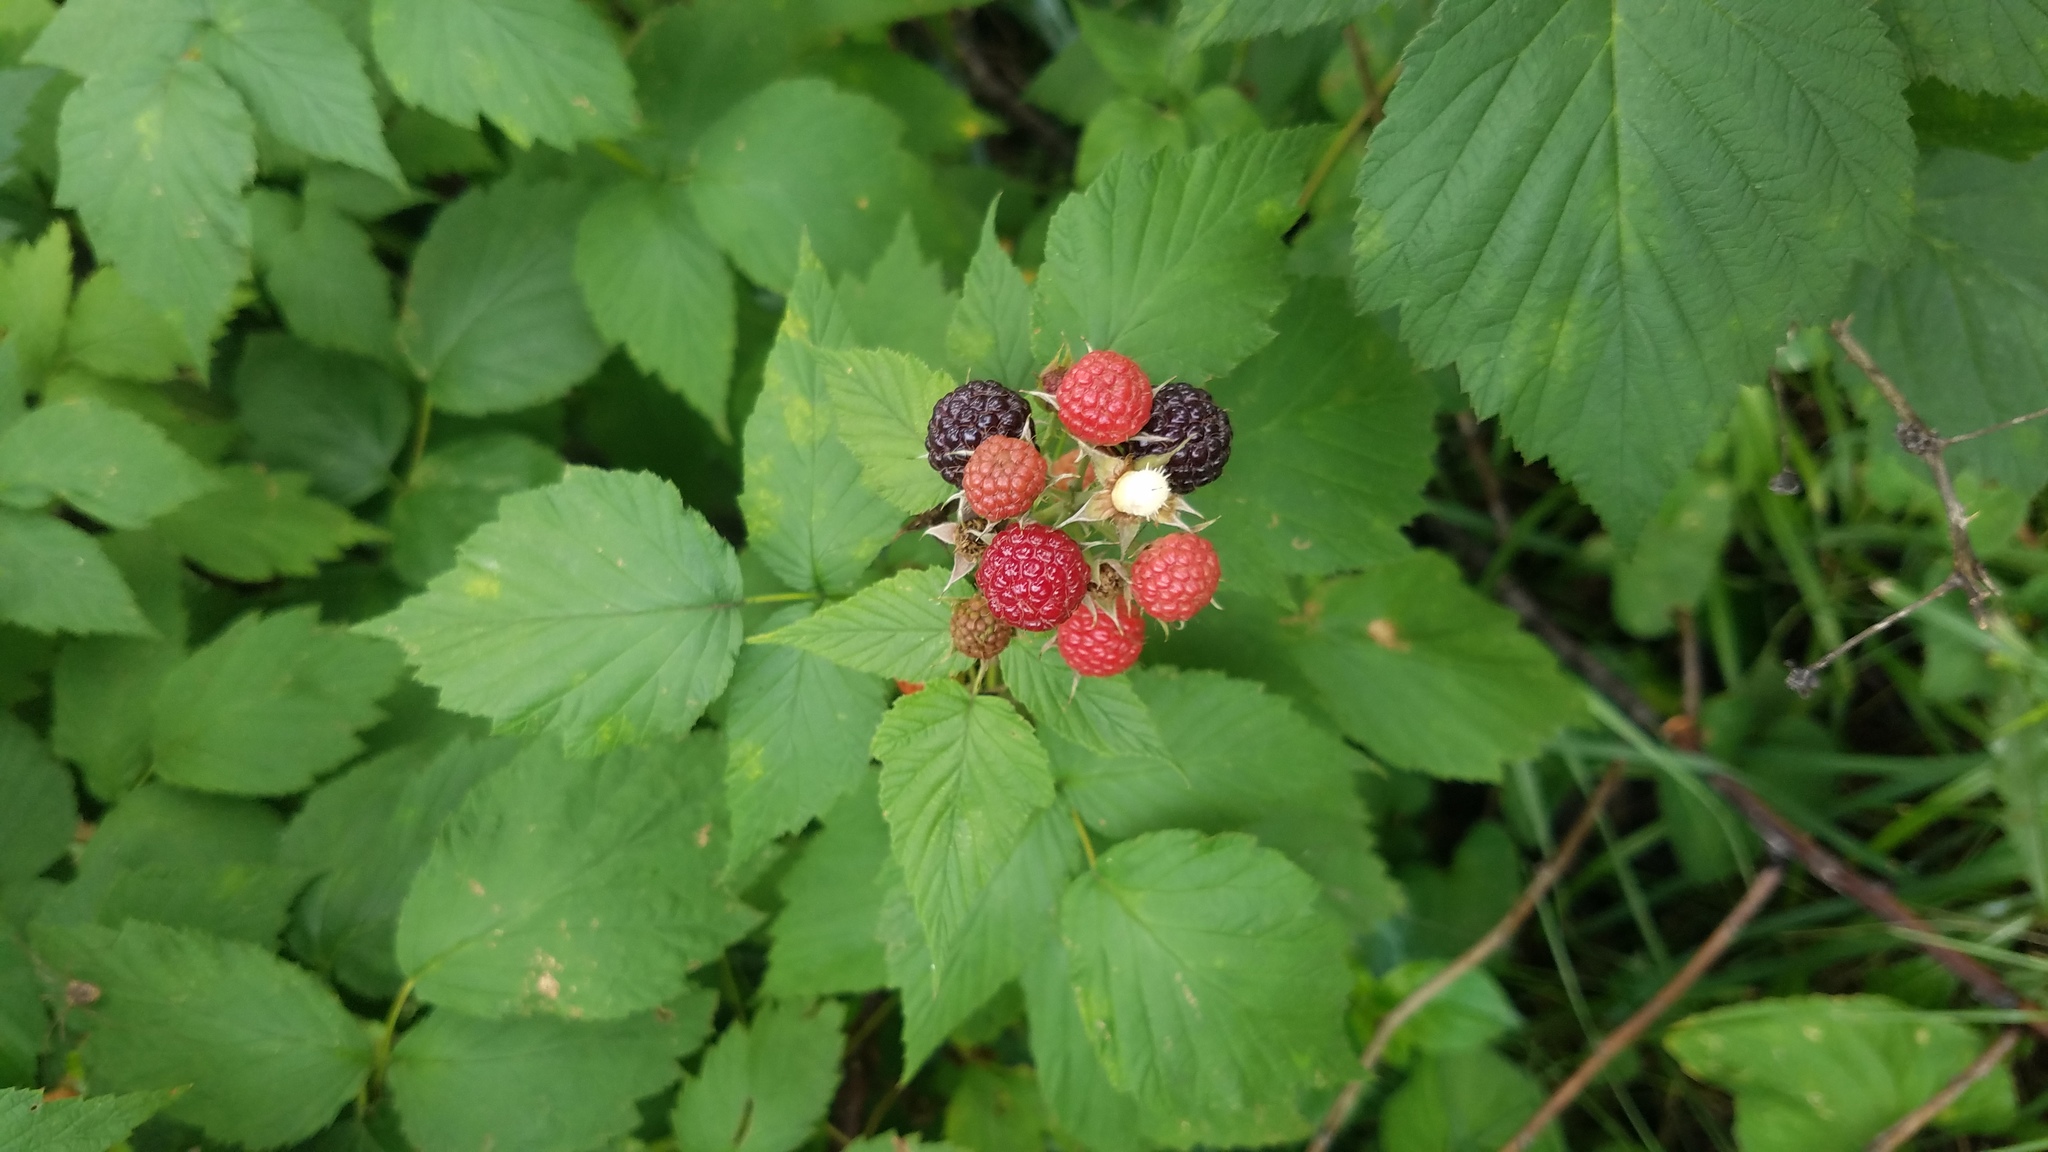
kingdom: Plantae
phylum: Tracheophyta
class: Magnoliopsida
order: Rosales
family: Rosaceae
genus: Rubus
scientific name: Rubus occidentalis
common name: Black raspberry
